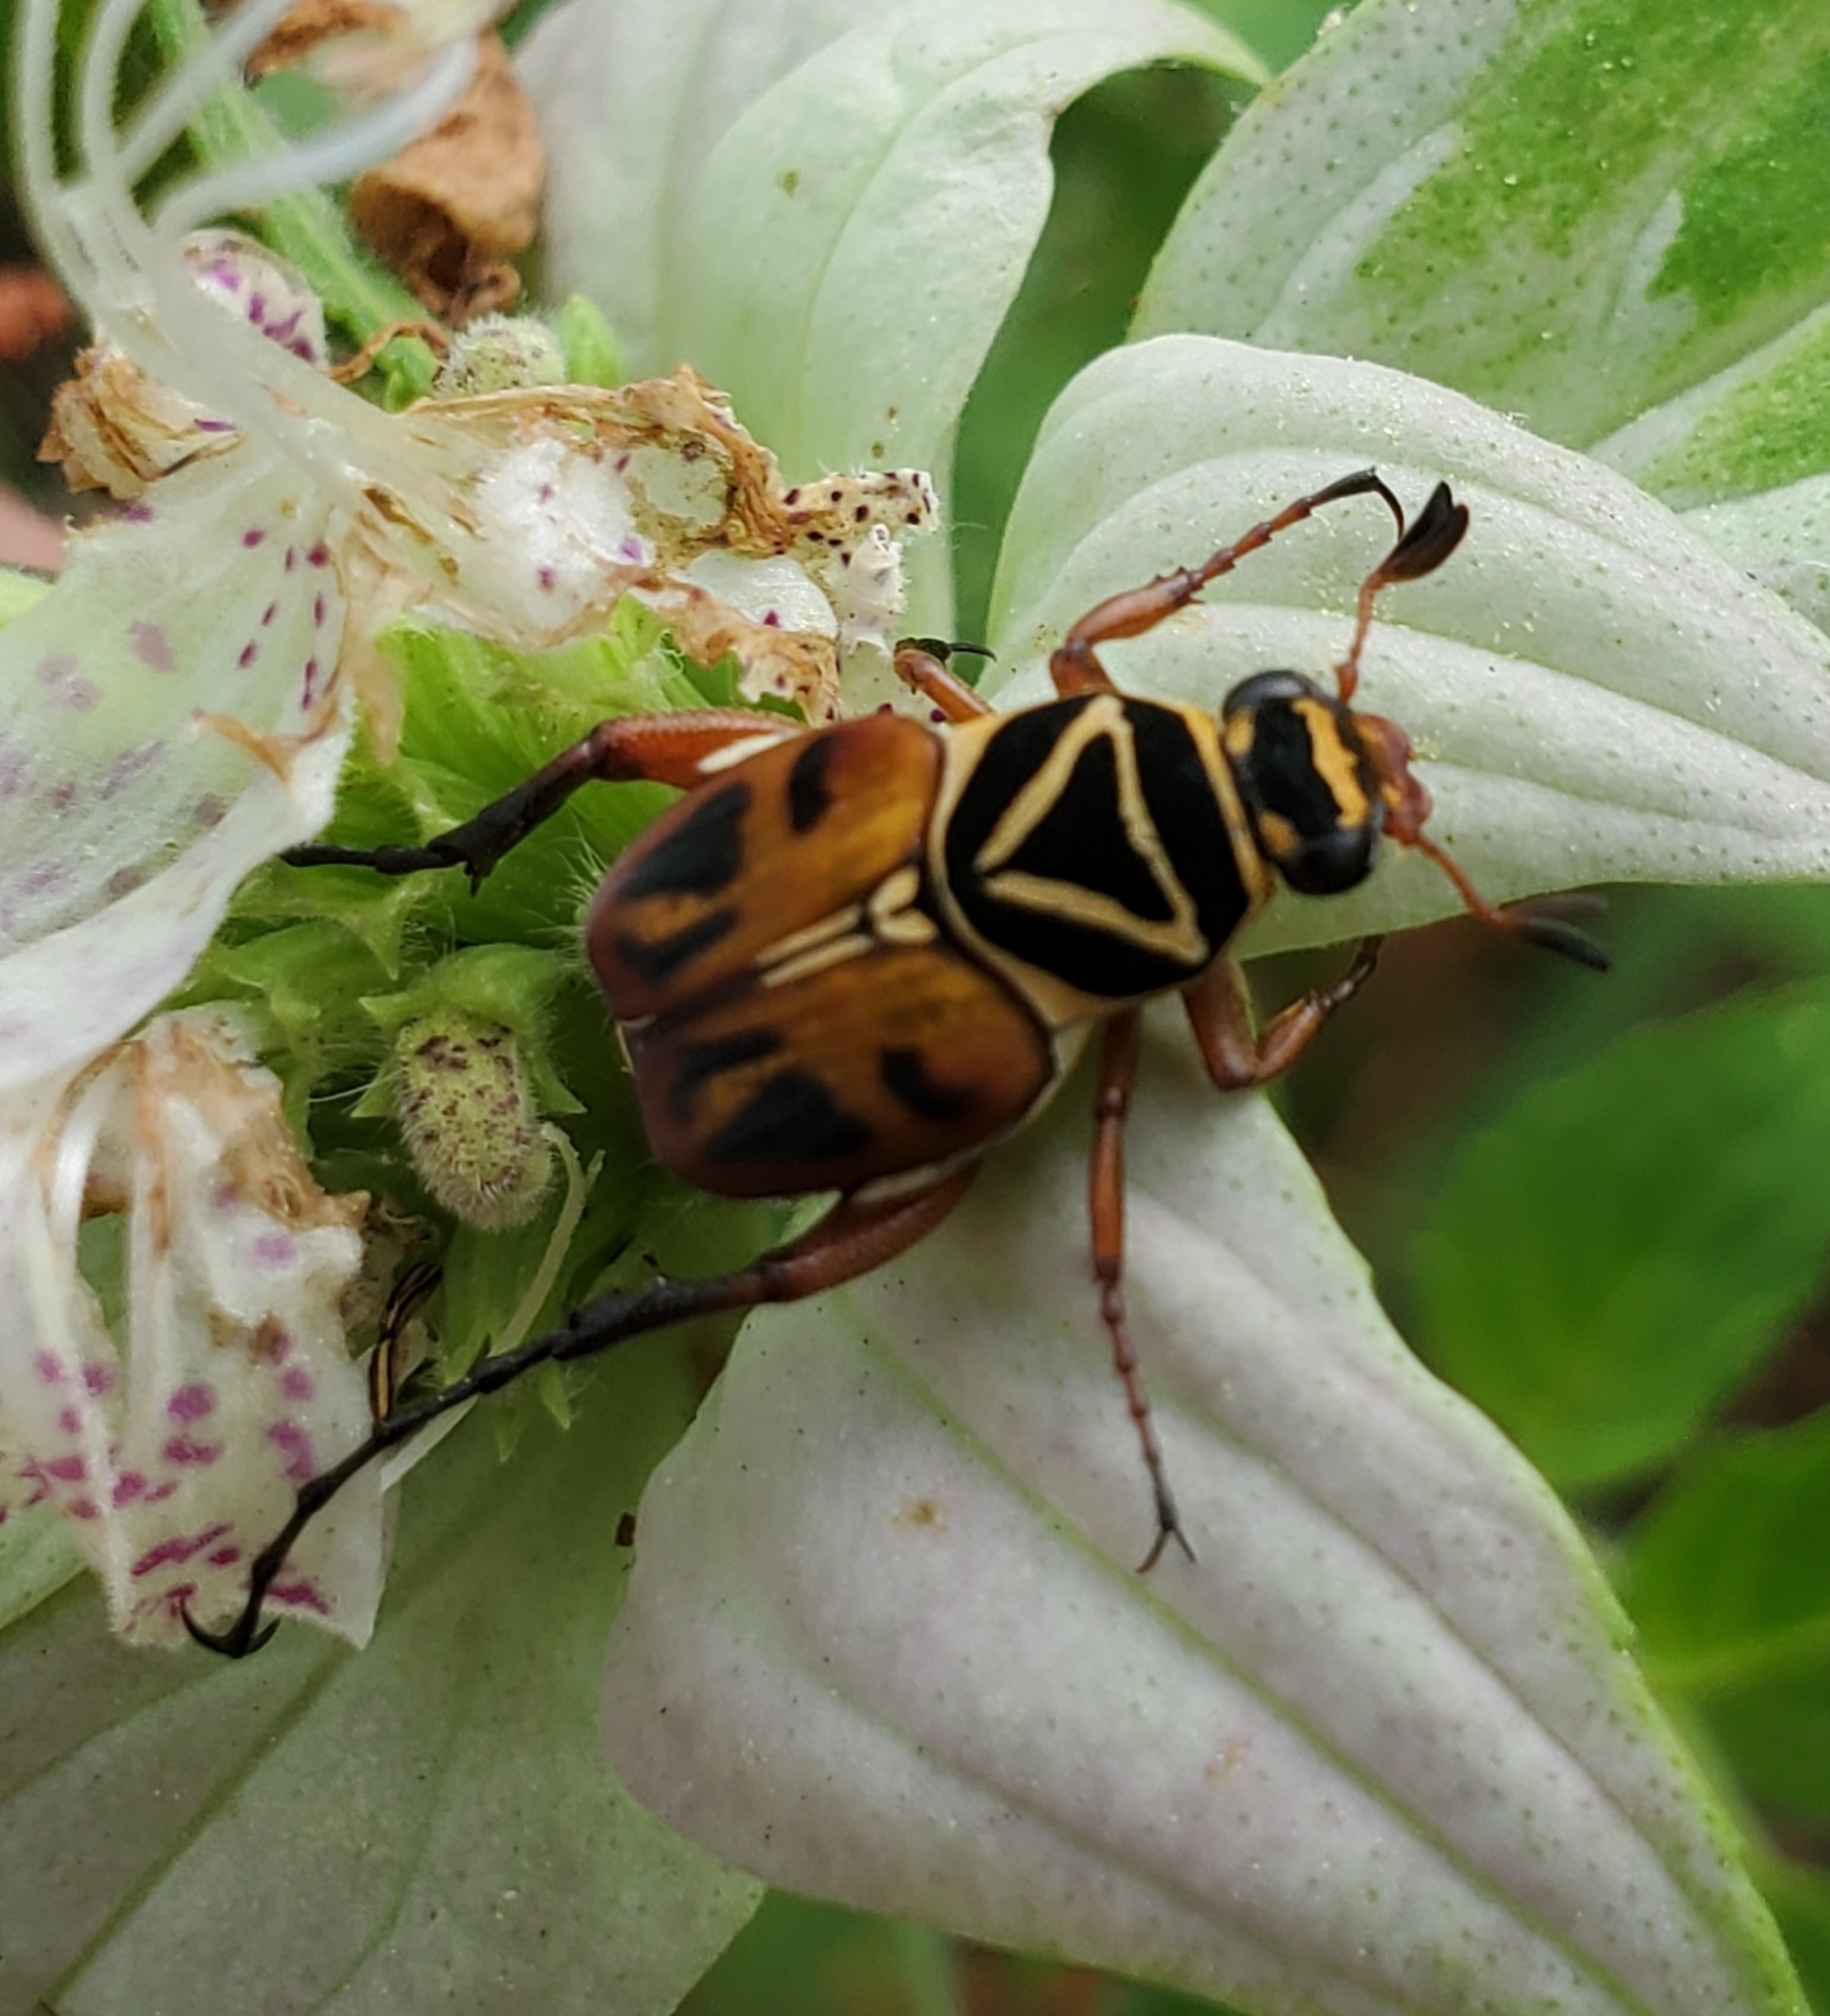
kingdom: Animalia
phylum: Arthropoda
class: Insecta
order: Coleoptera
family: Scarabaeidae
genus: Trigonopeltastes
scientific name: Trigonopeltastes delta
